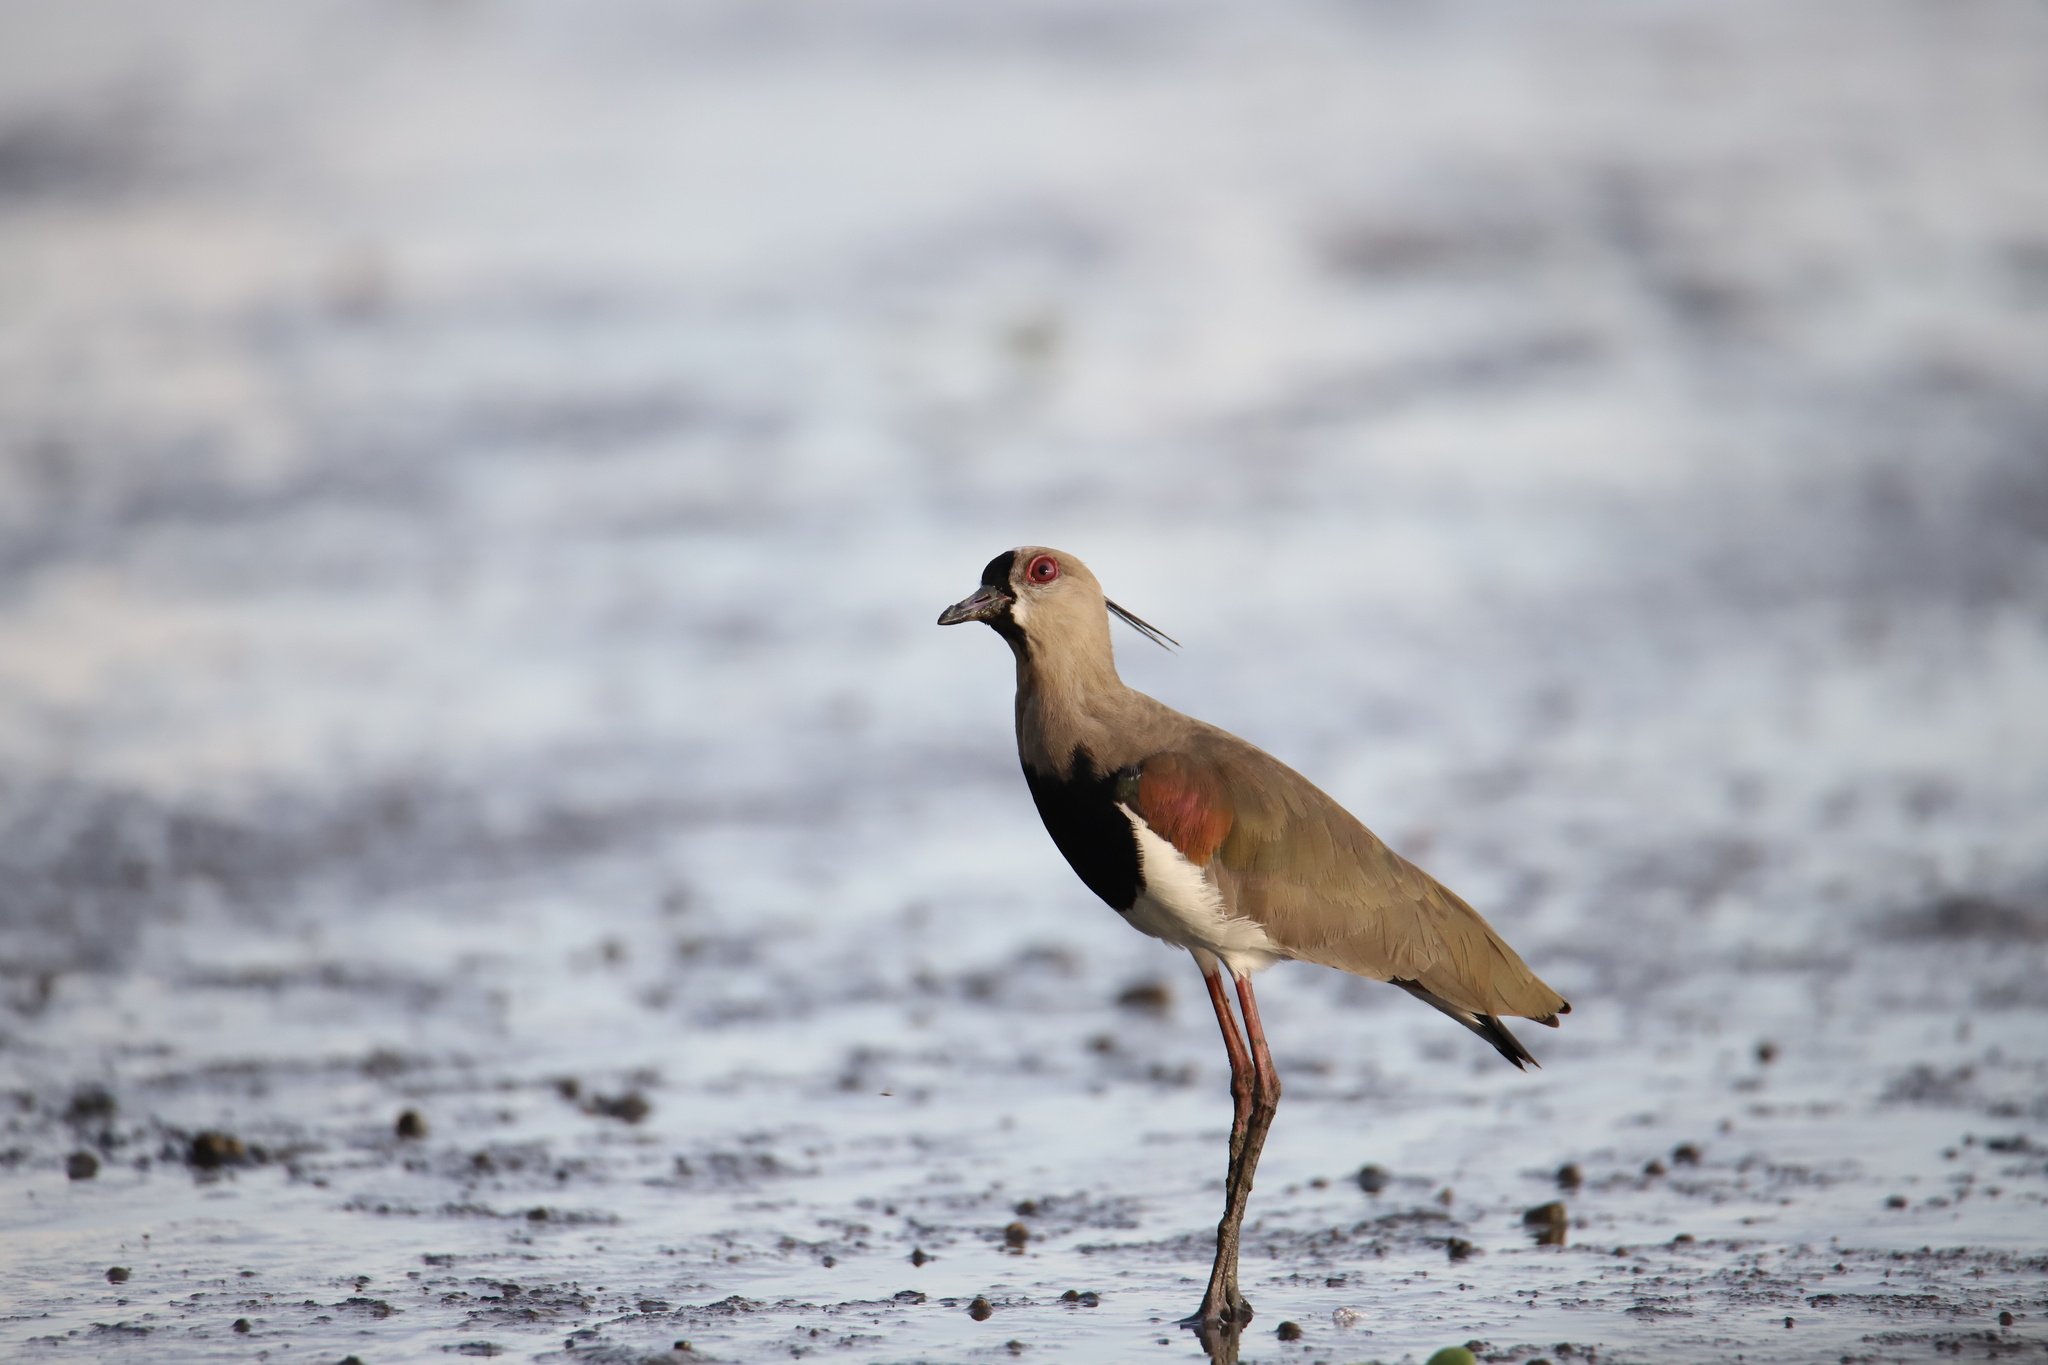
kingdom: Animalia
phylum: Chordata
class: Aves
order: Charadriiformes
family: Charadriidae
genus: Vanellus
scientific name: Vanellus chilensis
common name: Southern lapwing
